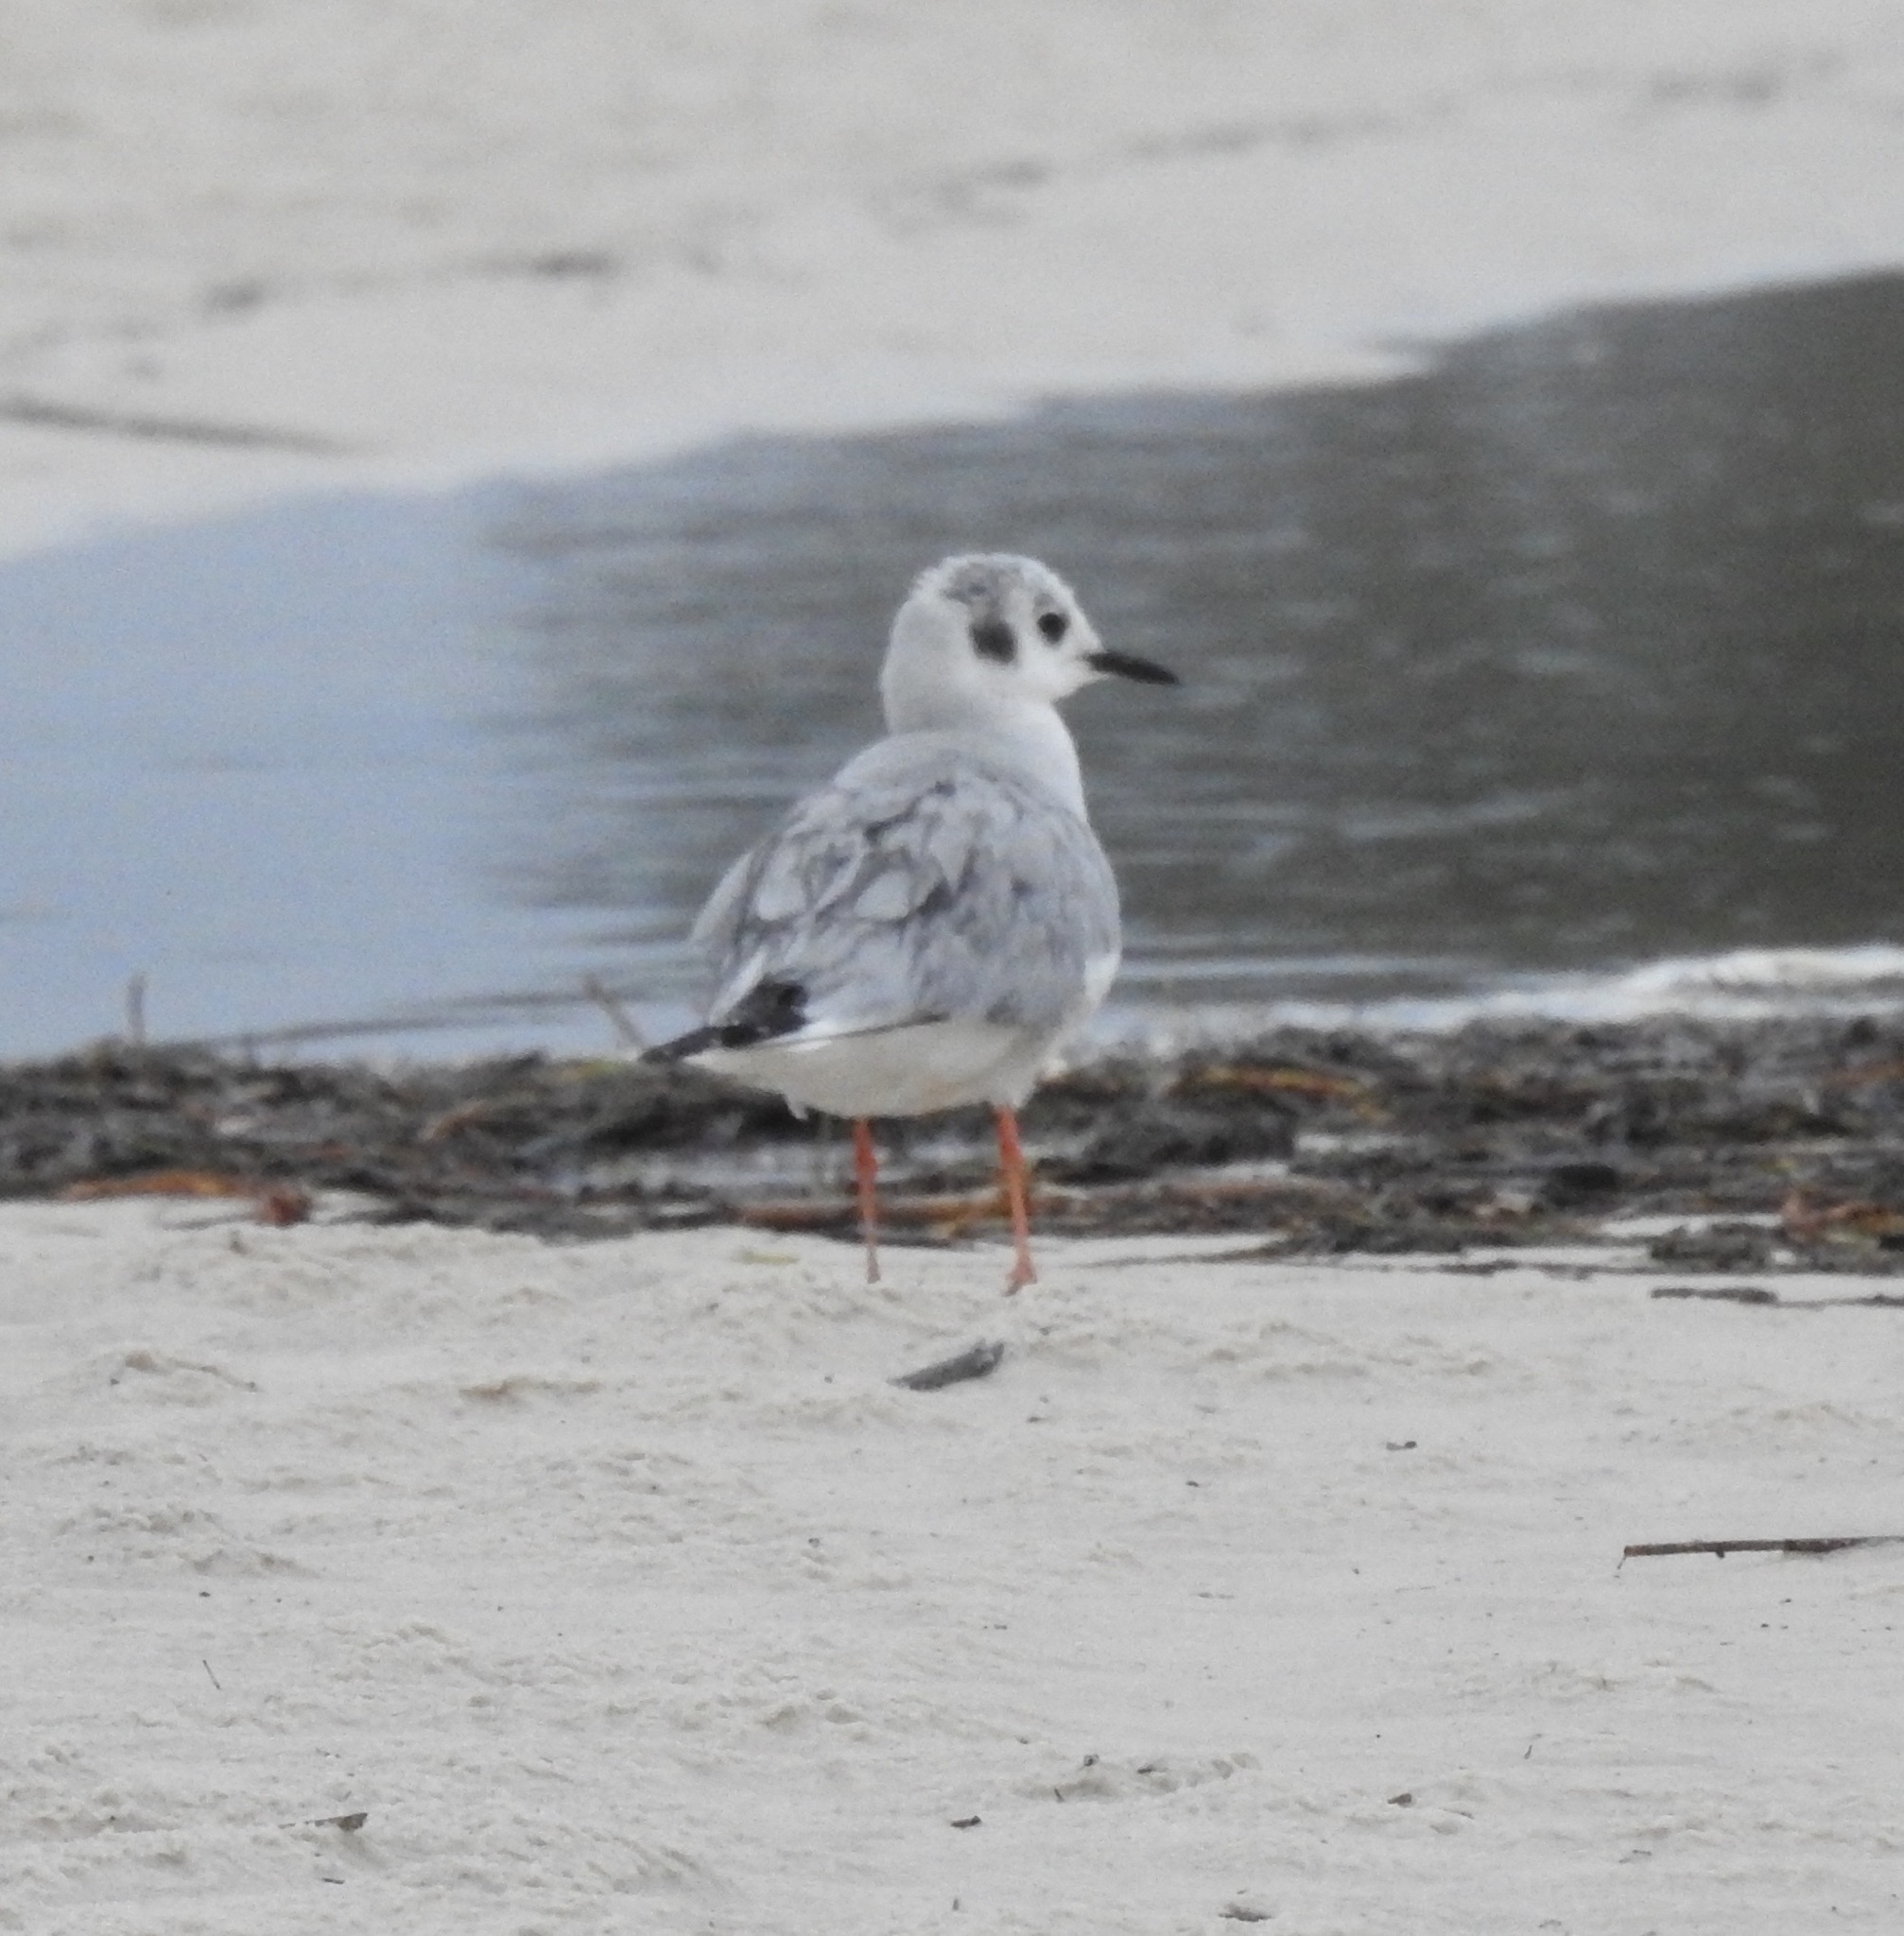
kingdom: Animalia
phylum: Chordata
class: Aves
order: Charadriiformes
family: Laridae
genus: Chroicocephalus
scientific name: Chroicocephalus philadelphia
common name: Bonaparte's gull
